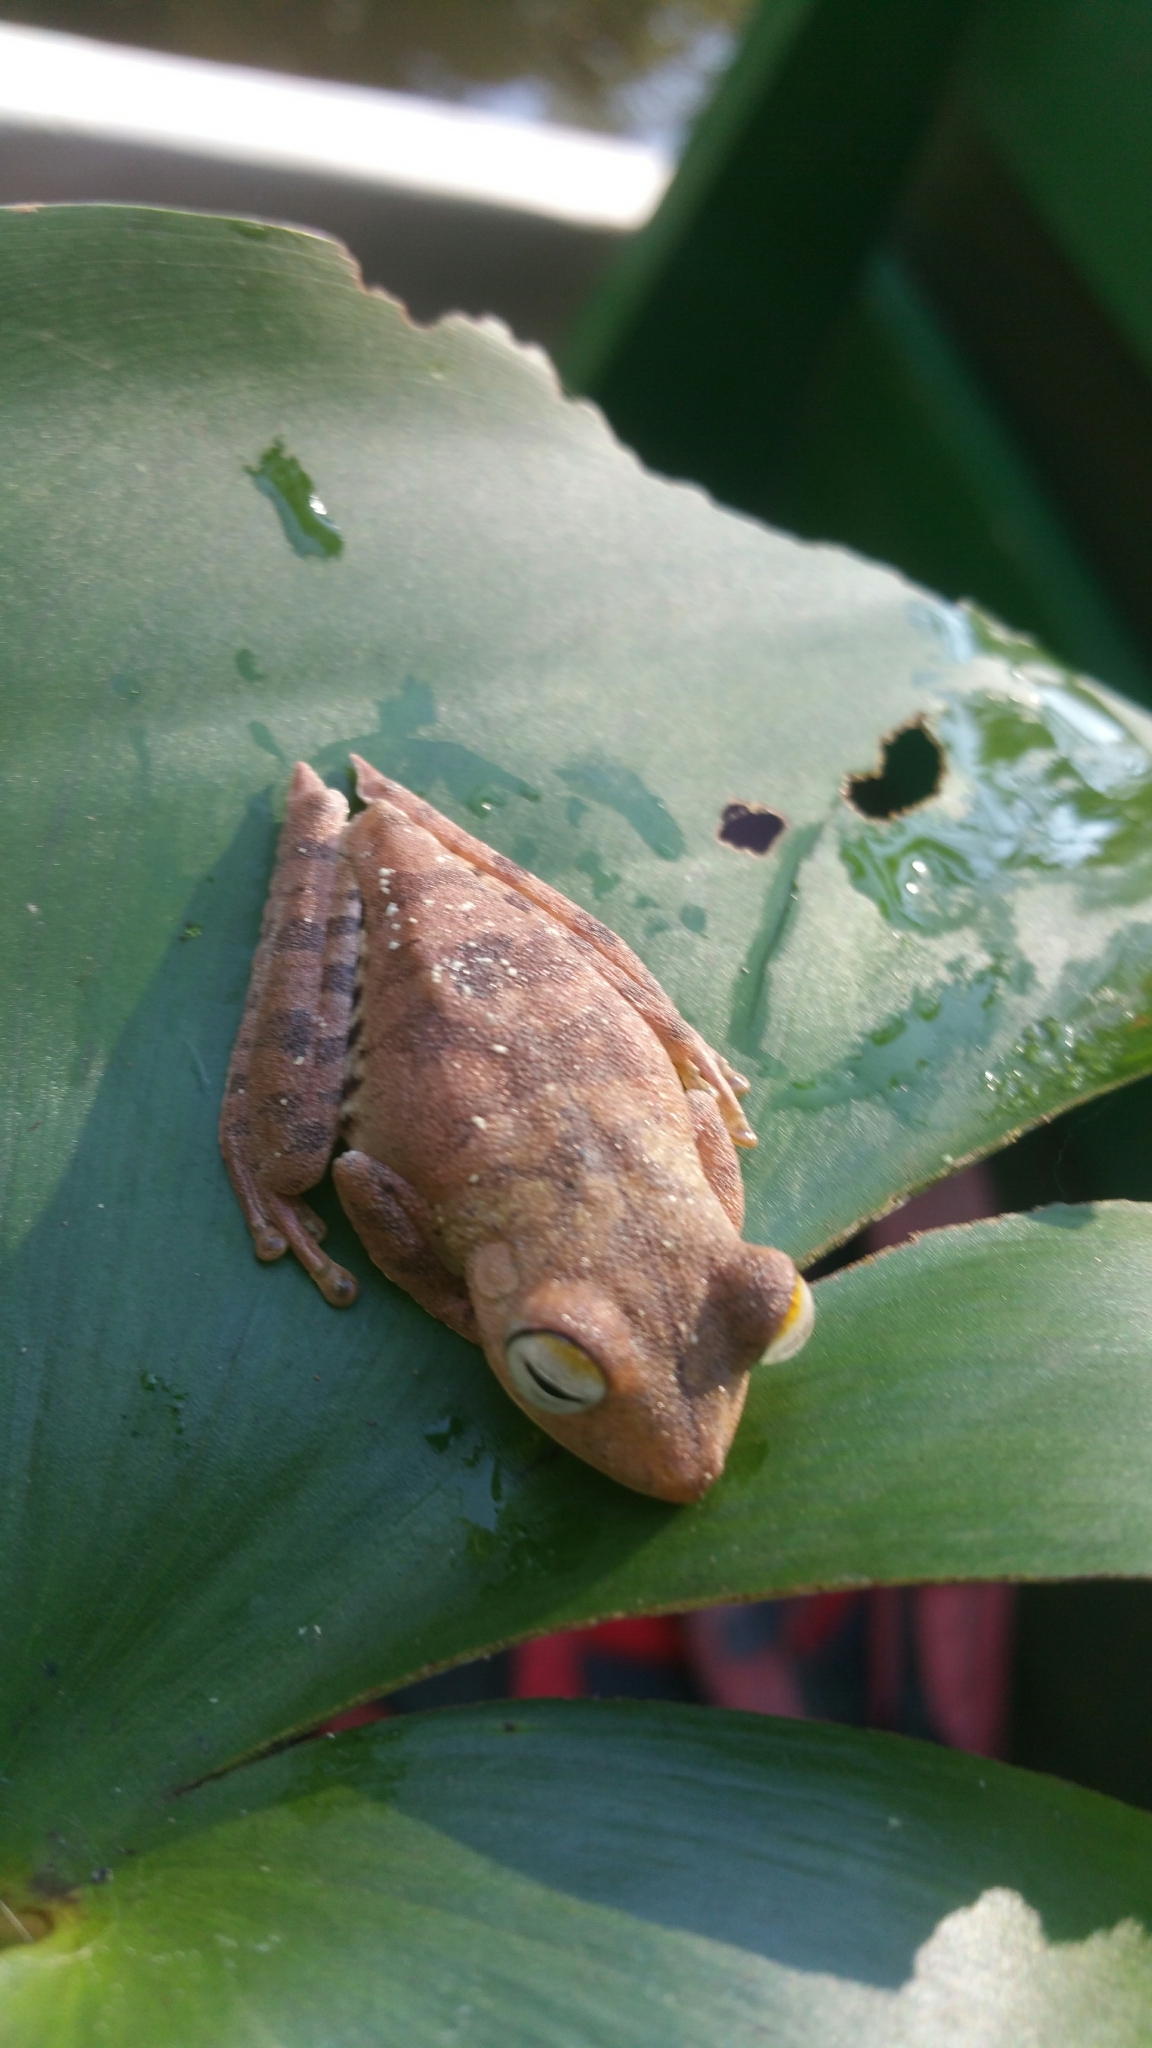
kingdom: Animalia
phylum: Chordata
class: Amphibia
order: Anura
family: Hylidae
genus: Boana
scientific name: Boana calcarata
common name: Blue-flanked treefrog
